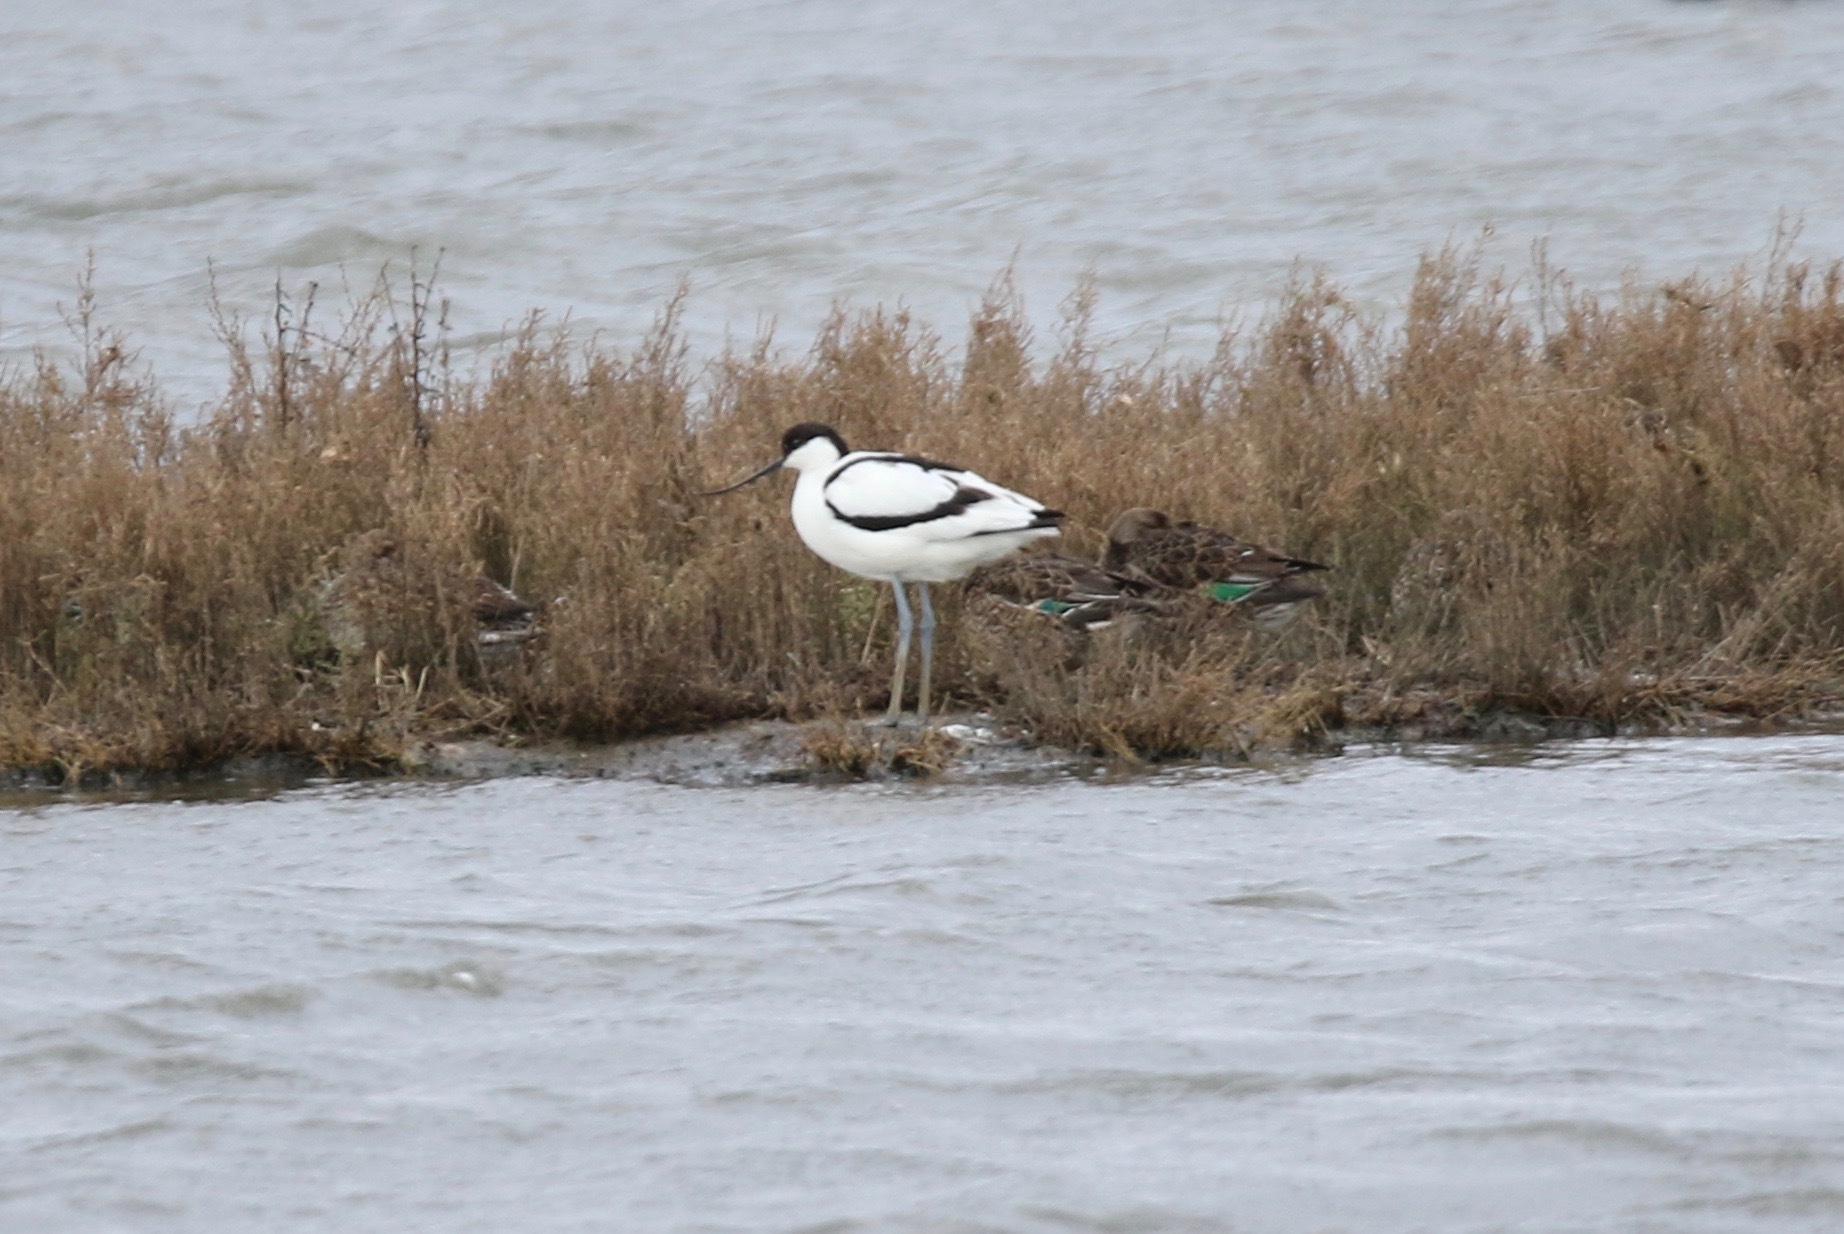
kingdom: Animalia
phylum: Chordata
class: Aves
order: Charadriiformes
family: Recurvirostridae
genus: Recurvirostra
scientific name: Recurvirostra avosetta
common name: Pied avocet
